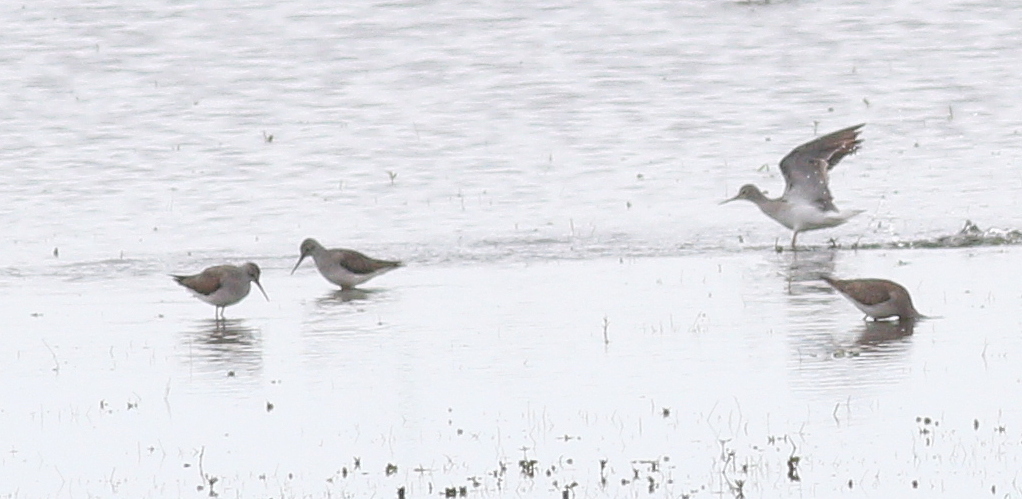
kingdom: Animalia
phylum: Chordata
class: Aves
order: Charadriiformes
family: Scolopacidae
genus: Tringa
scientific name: Tringa flavipes
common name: Lesser yellowlegs
